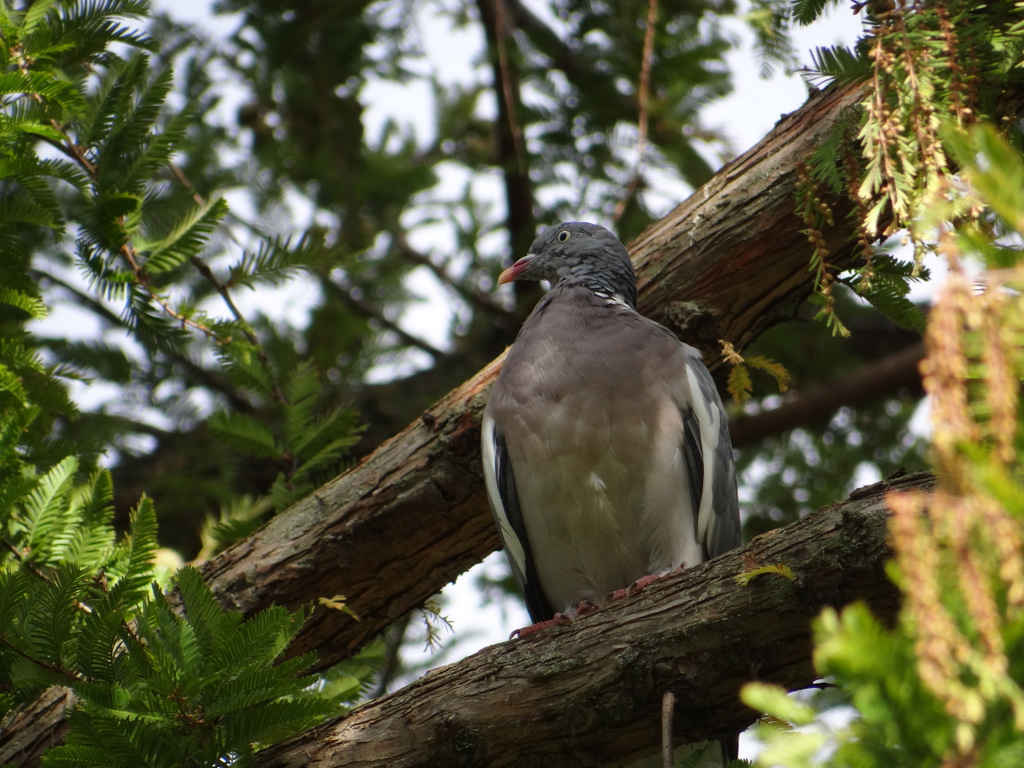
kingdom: Animalia
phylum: Chordata
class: Aves
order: Columbiformes
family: Columbidae
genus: Columba
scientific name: Columba palumbus
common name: Common wood pigeon
